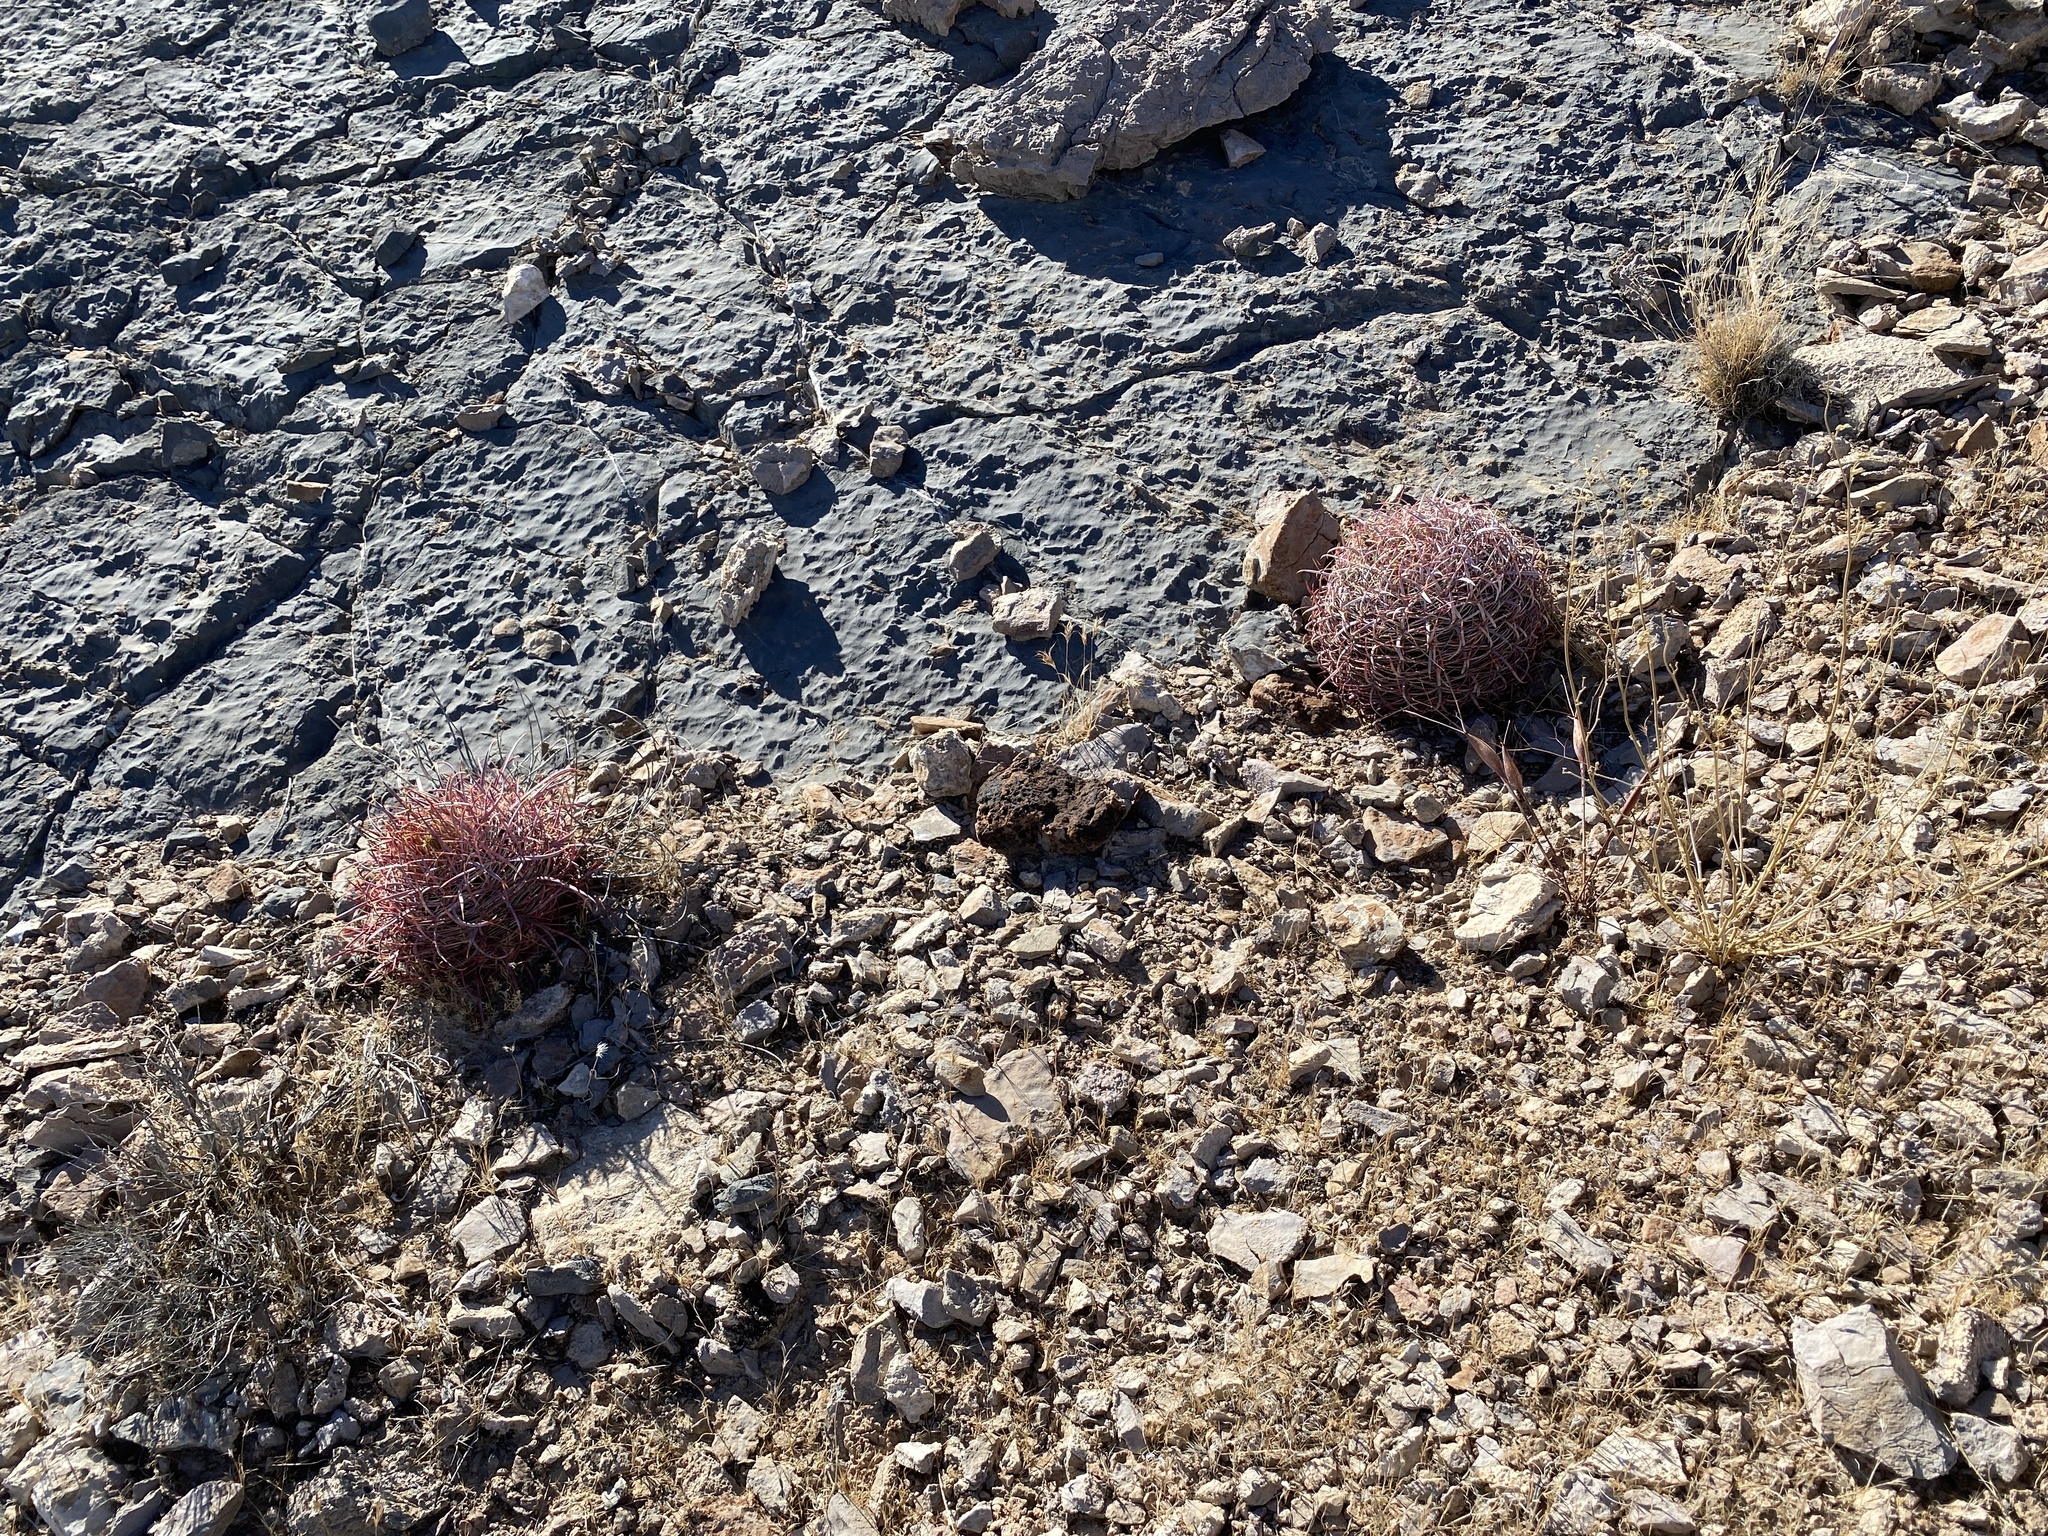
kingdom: Plantae
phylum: Tracheophyta
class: Magnoliopsida
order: Caryophyllales
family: Cactaceae
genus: Ferocactus
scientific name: Ferocactus cylindraceus
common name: California barrel cactus
